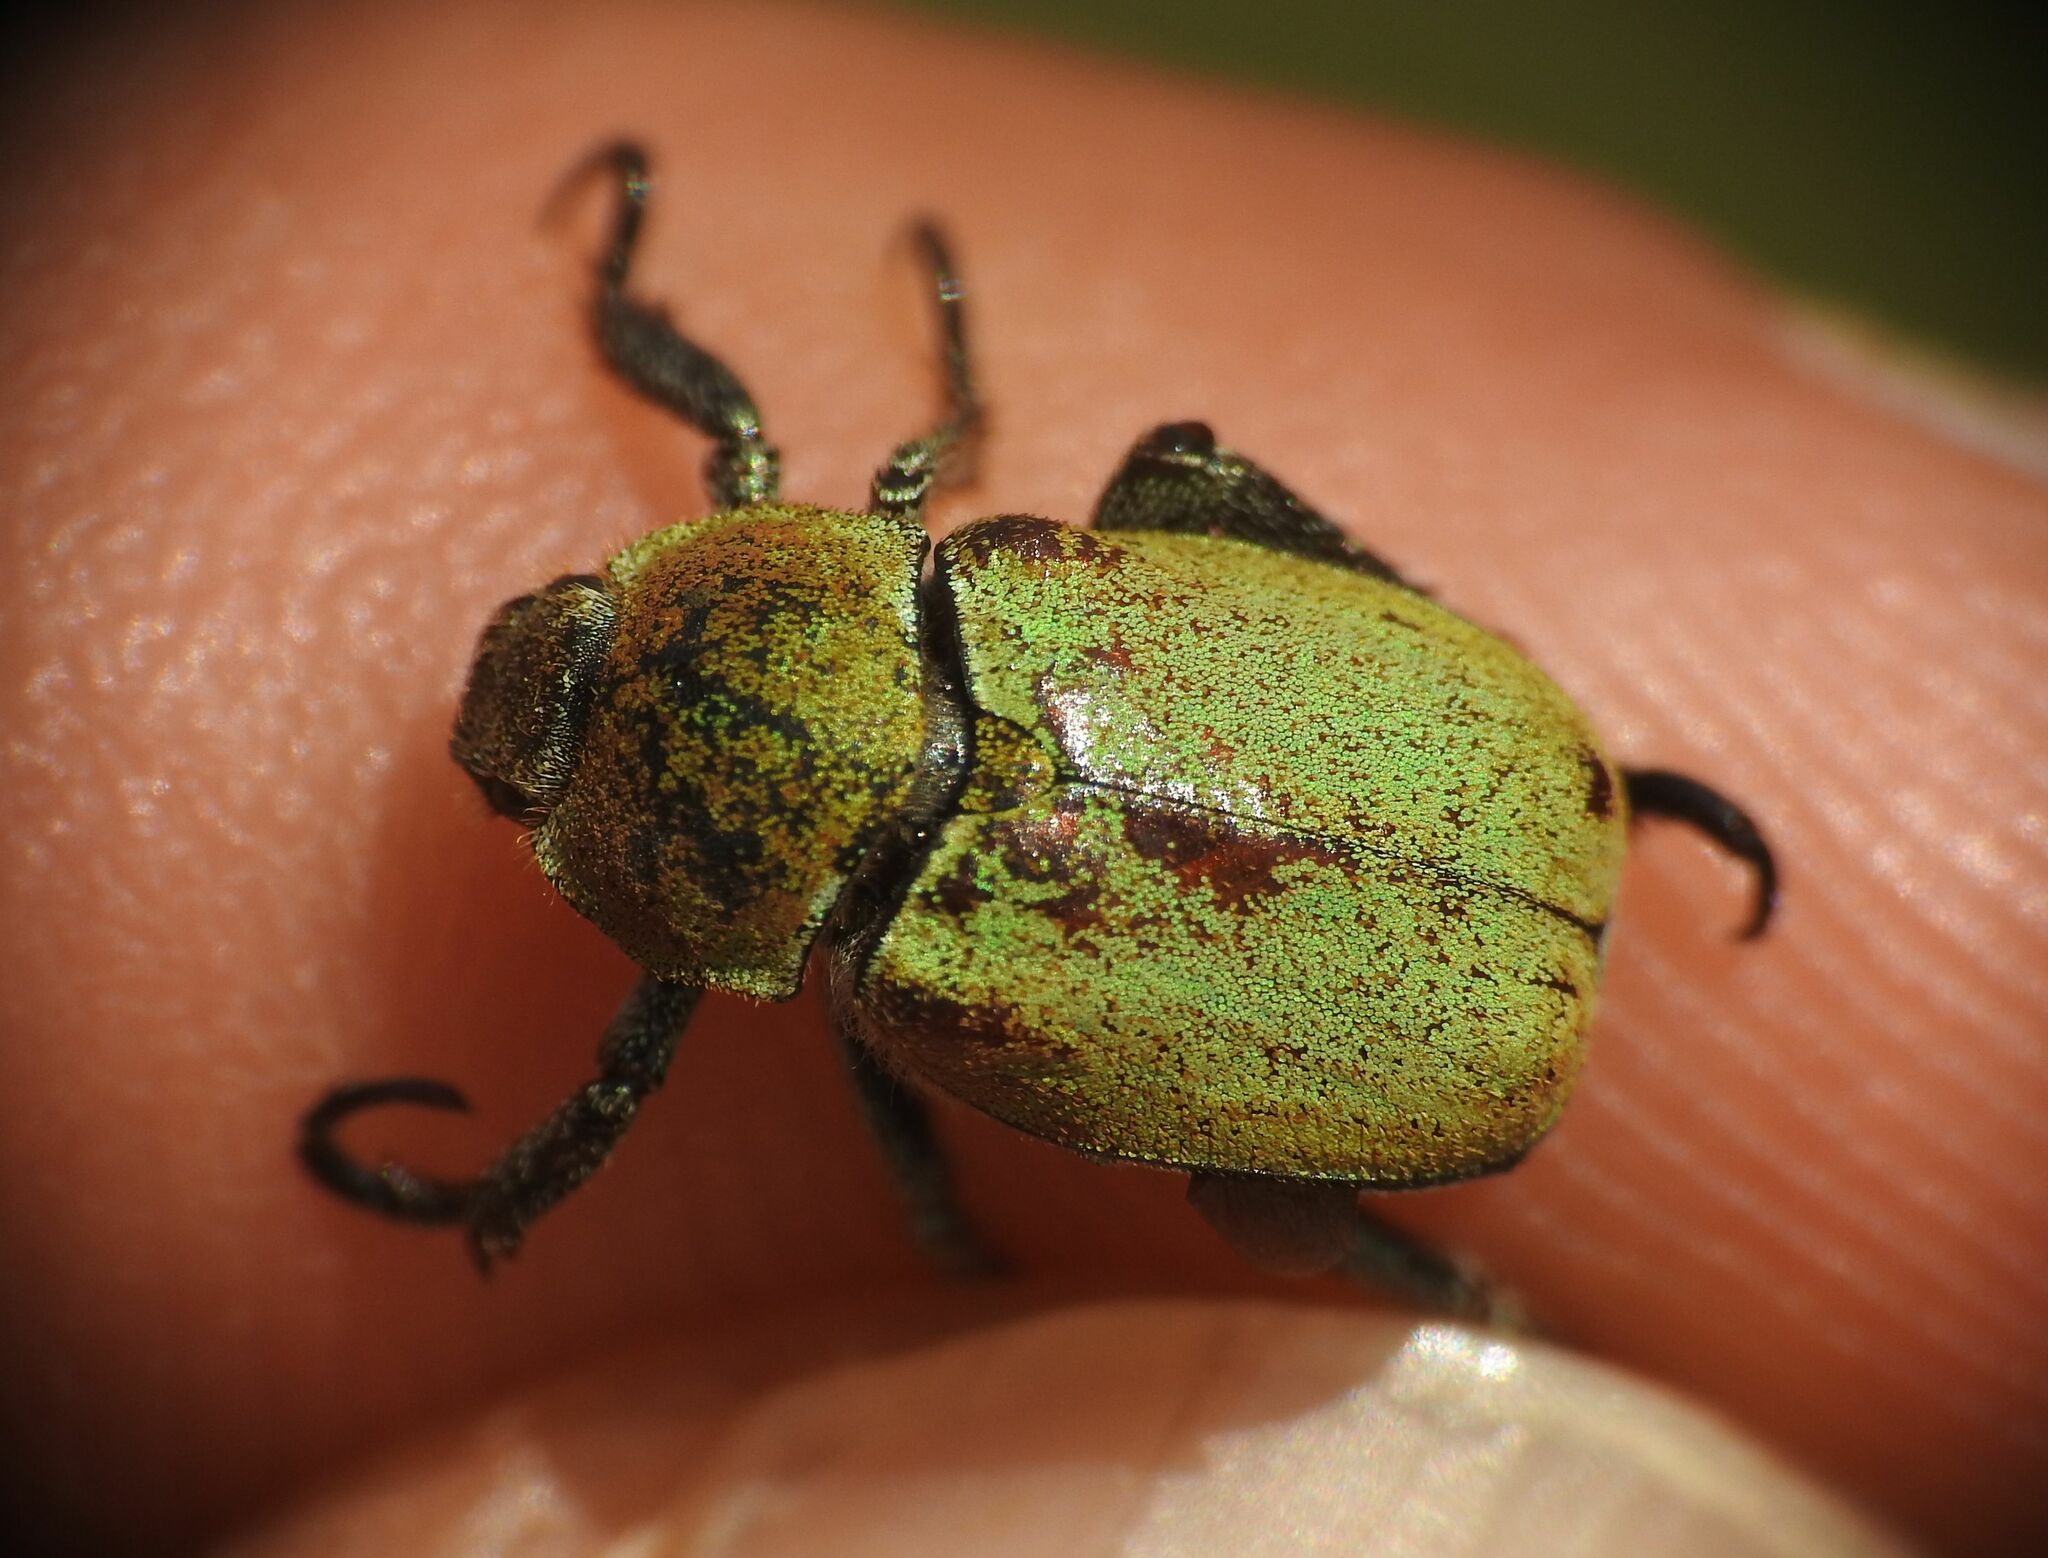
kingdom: Animalia
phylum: Arthropoda
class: Insecta
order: Coleoptera
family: Scarabaeidae
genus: Hoplia
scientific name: Hoplia argentea
